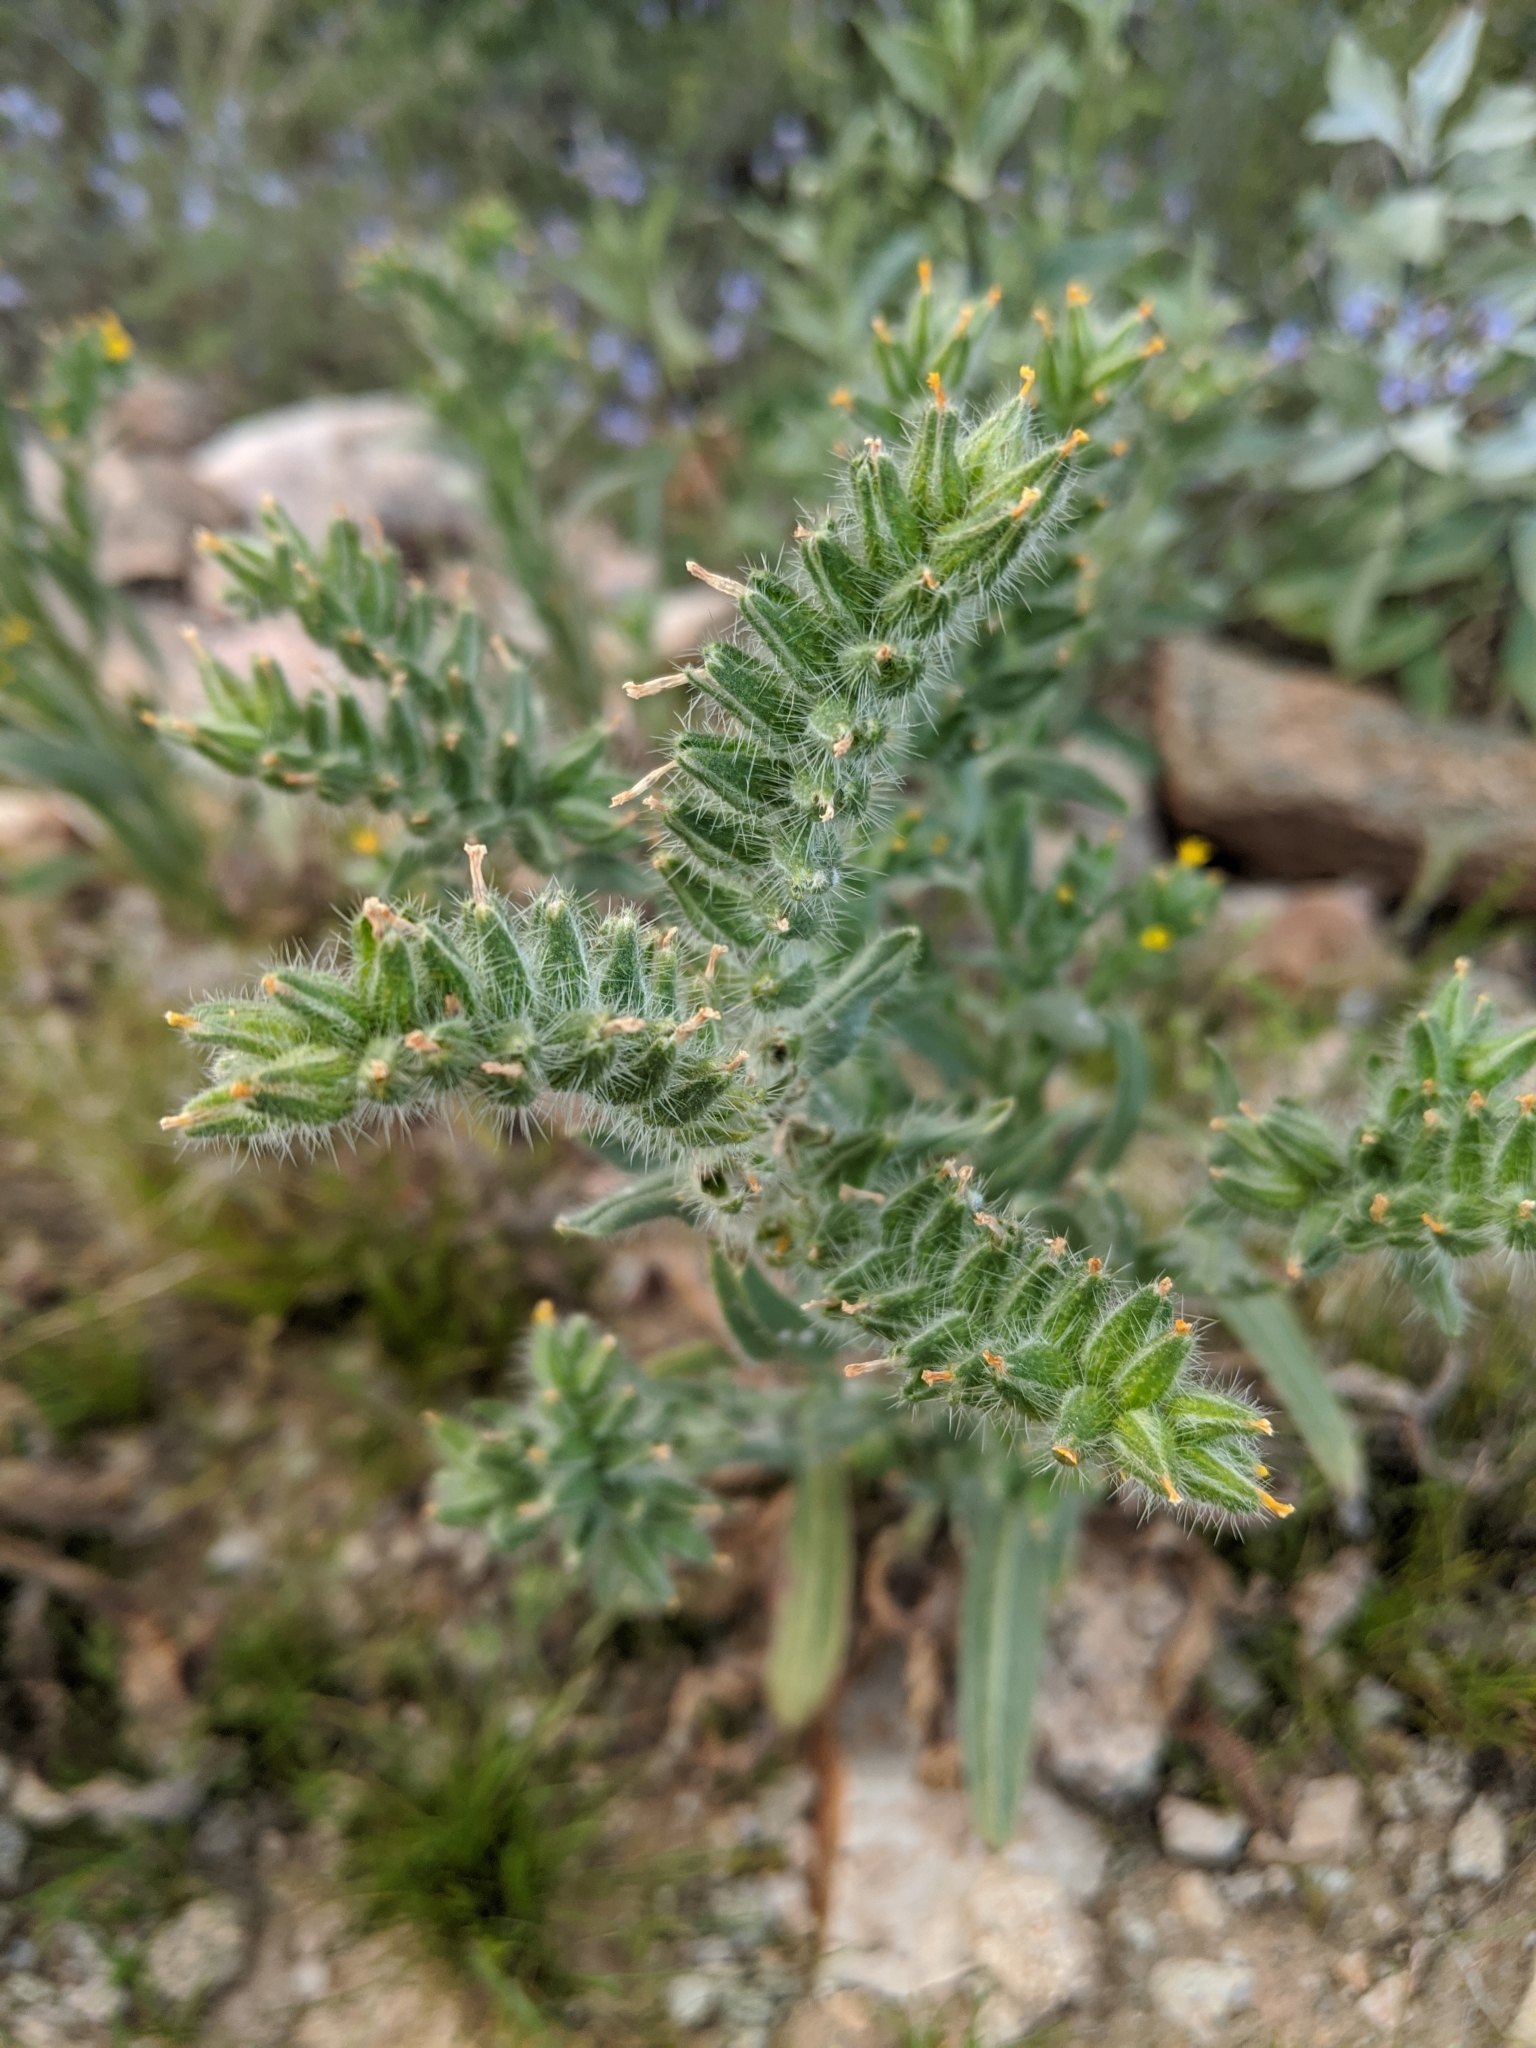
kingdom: Plantae
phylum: Tracheophyta
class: Magnoliopsida
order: Boraginales
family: Boraginaceae
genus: Amsinckia
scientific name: Amsinckia tessellata
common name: Tessellate fiddleneck
